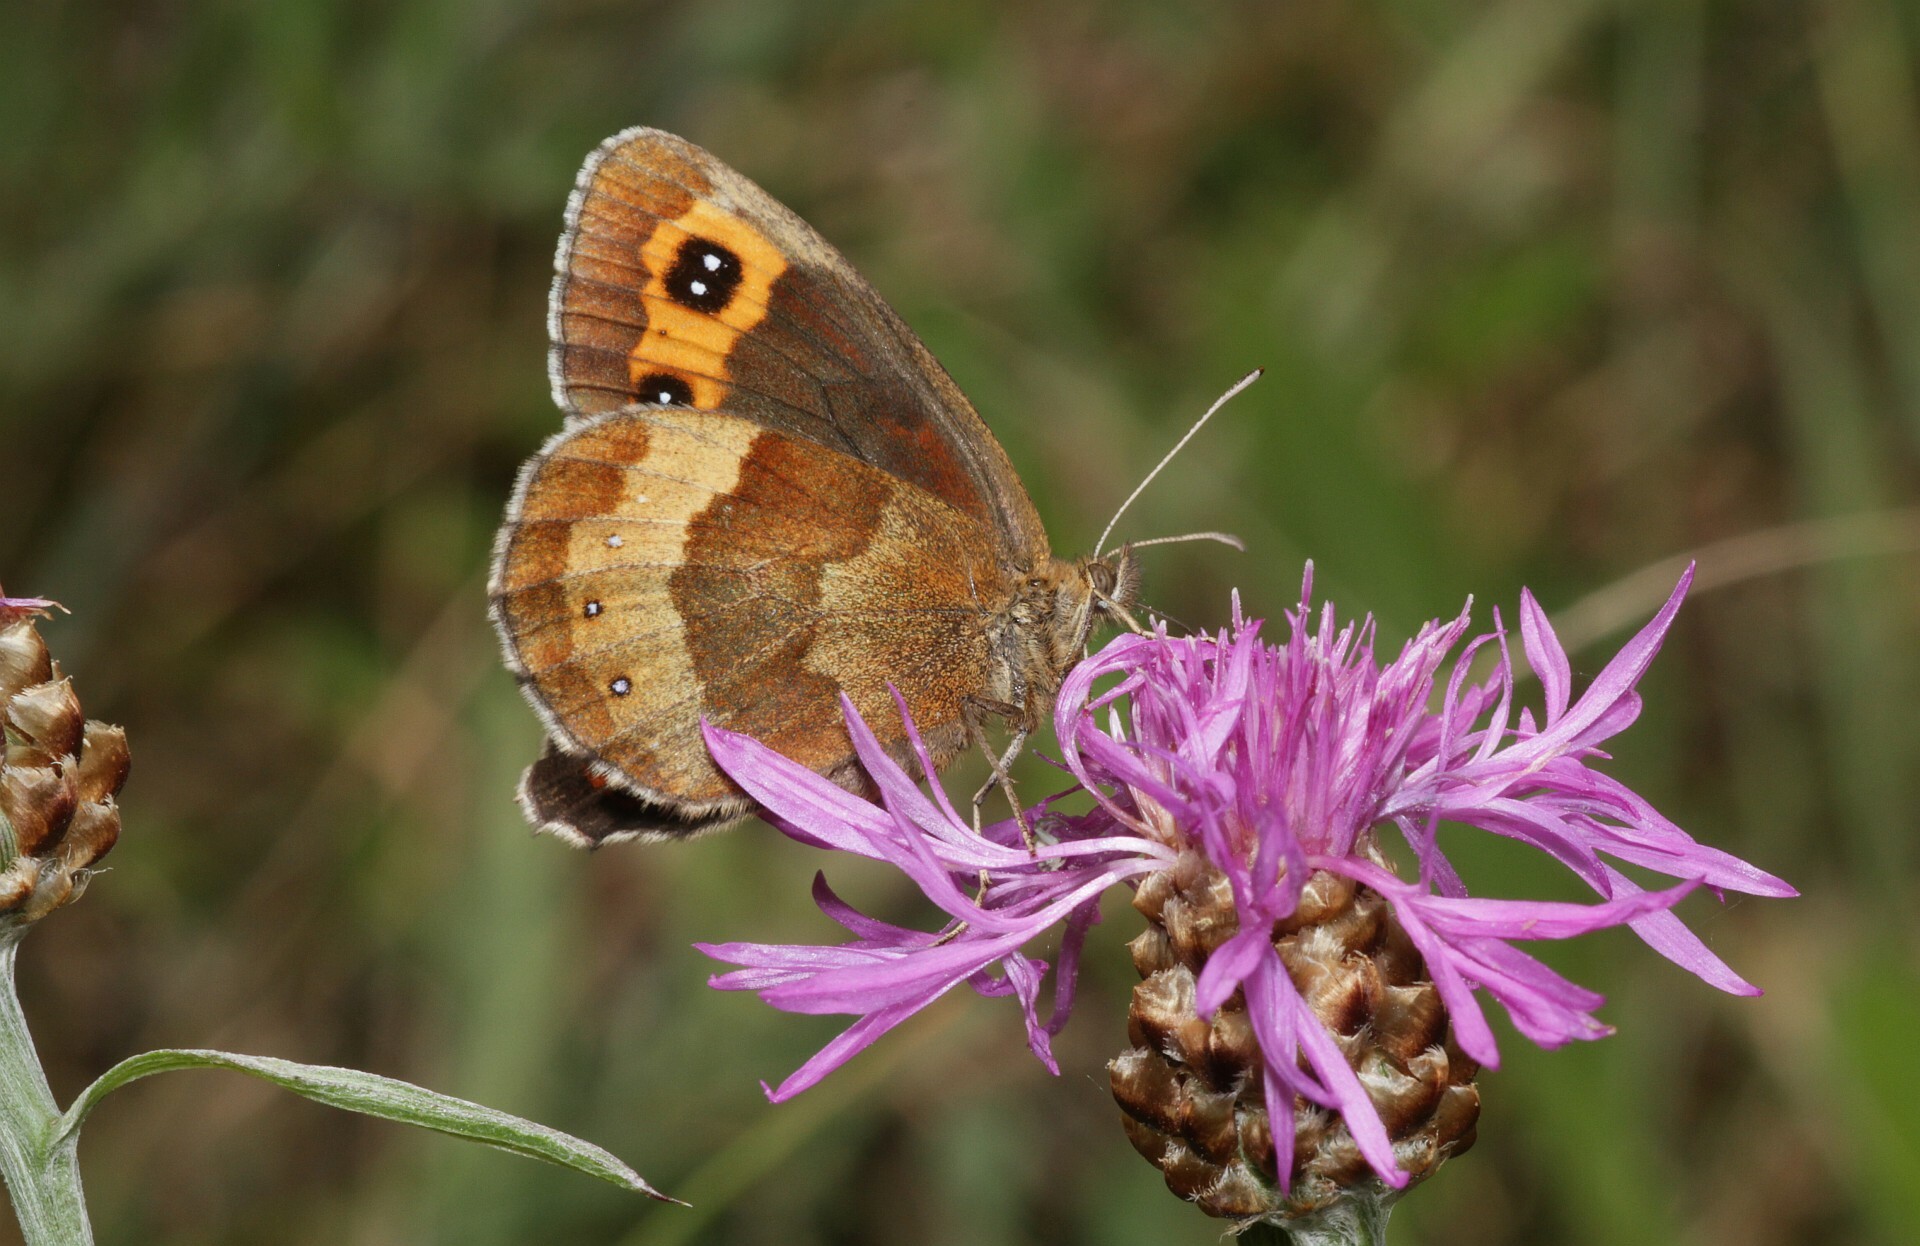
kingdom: Animalia
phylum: Arthropoda
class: Insecta
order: Lepidoptera
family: Nymphalidae
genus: Erebia
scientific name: Erebia aethiops
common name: Scotch argus
